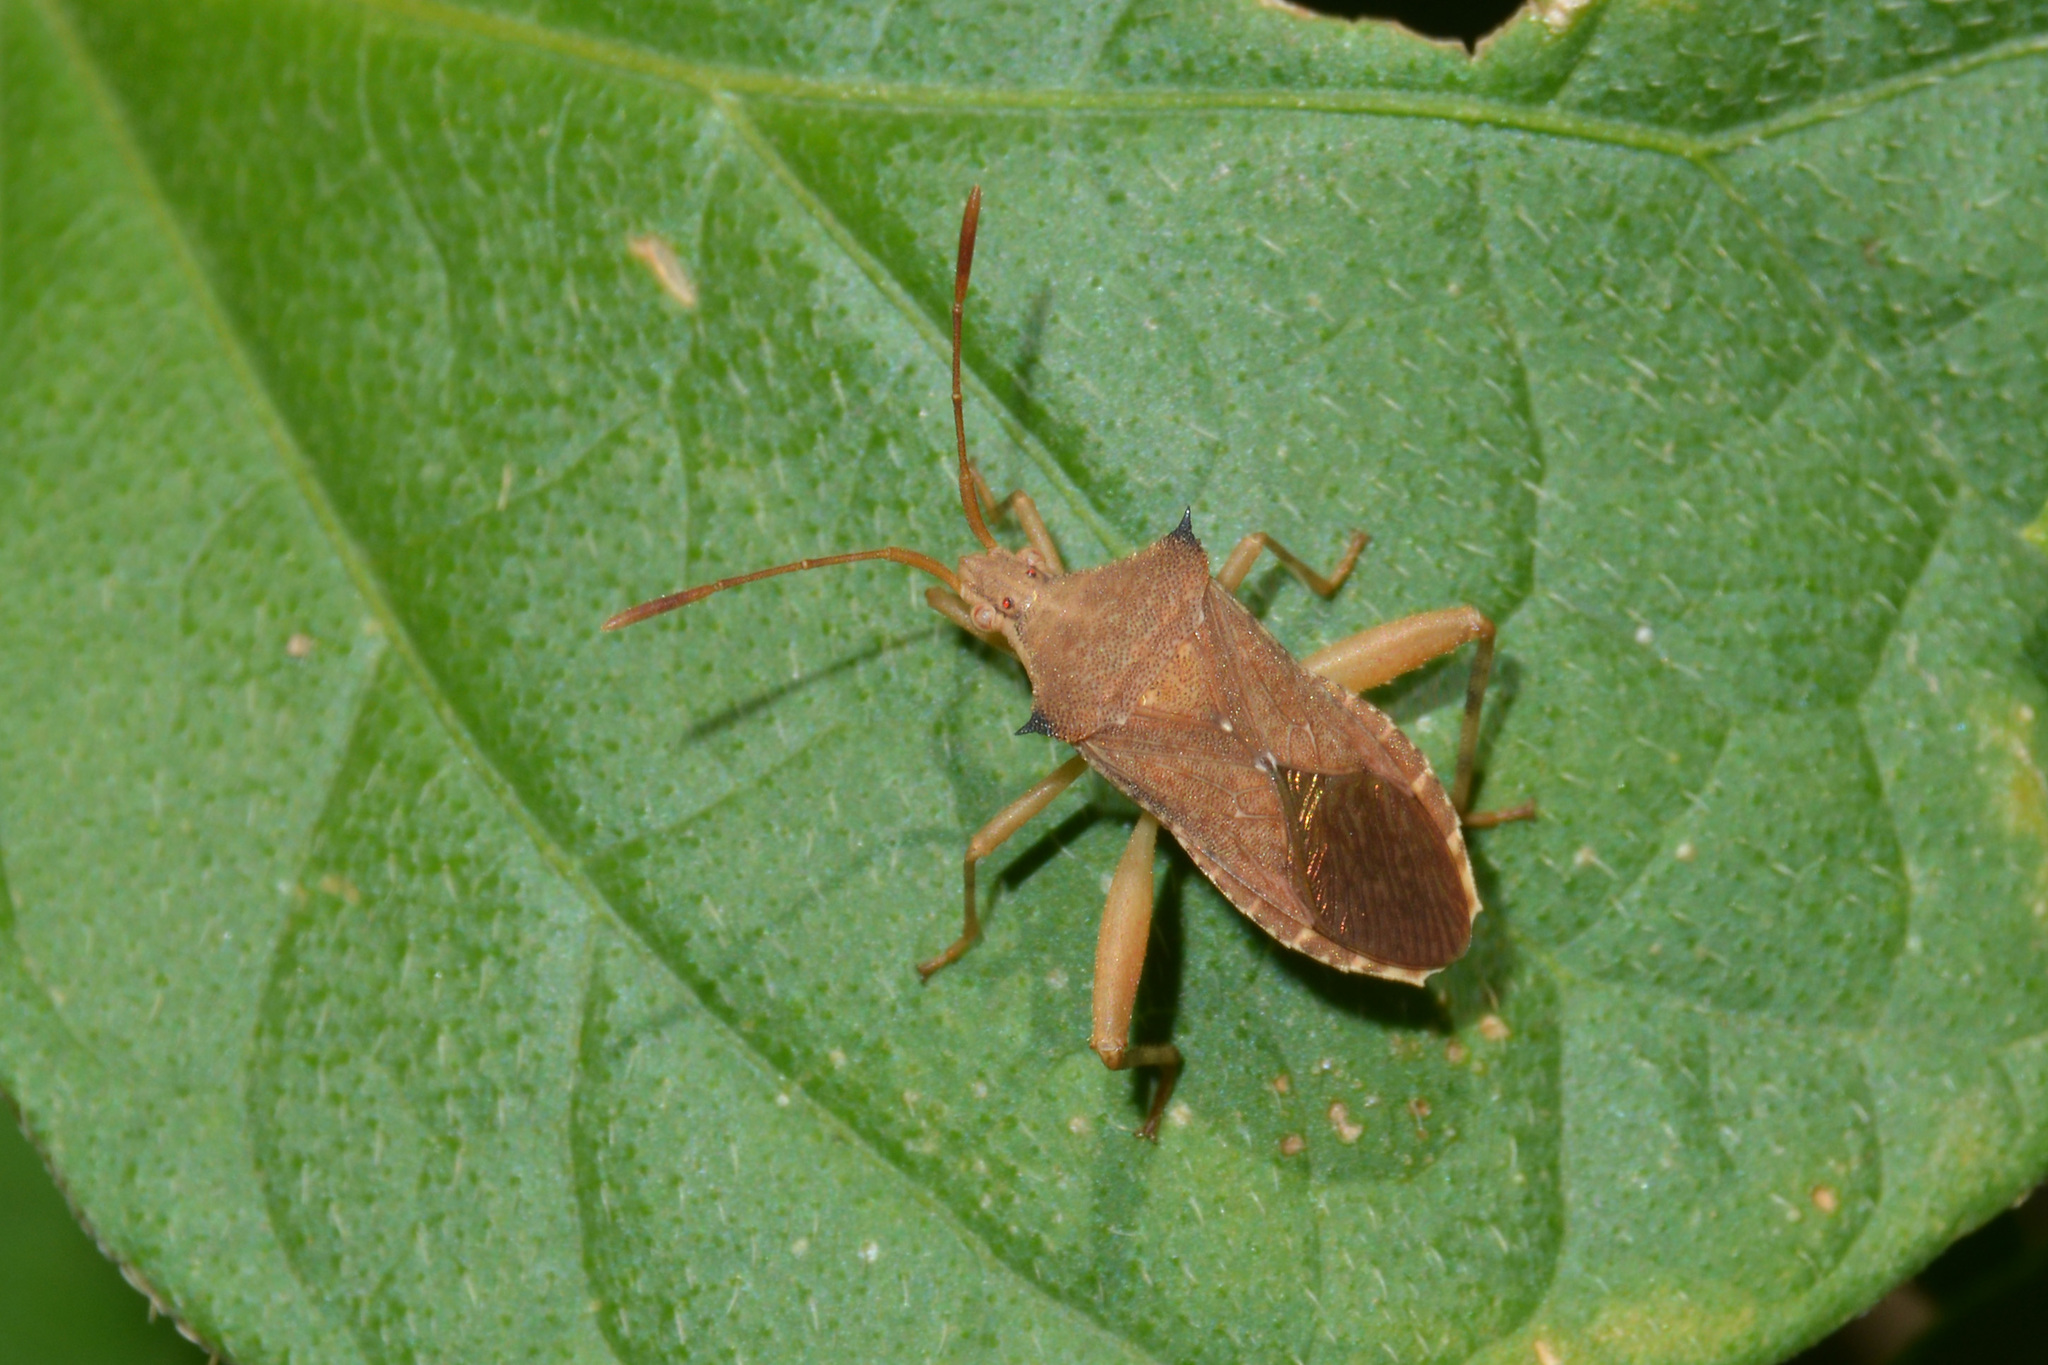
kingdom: Animalia
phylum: Arthropoda
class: Insecta
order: Hemiptera
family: Coreidae
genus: Coribergia
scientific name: Coribergia declivicollis
